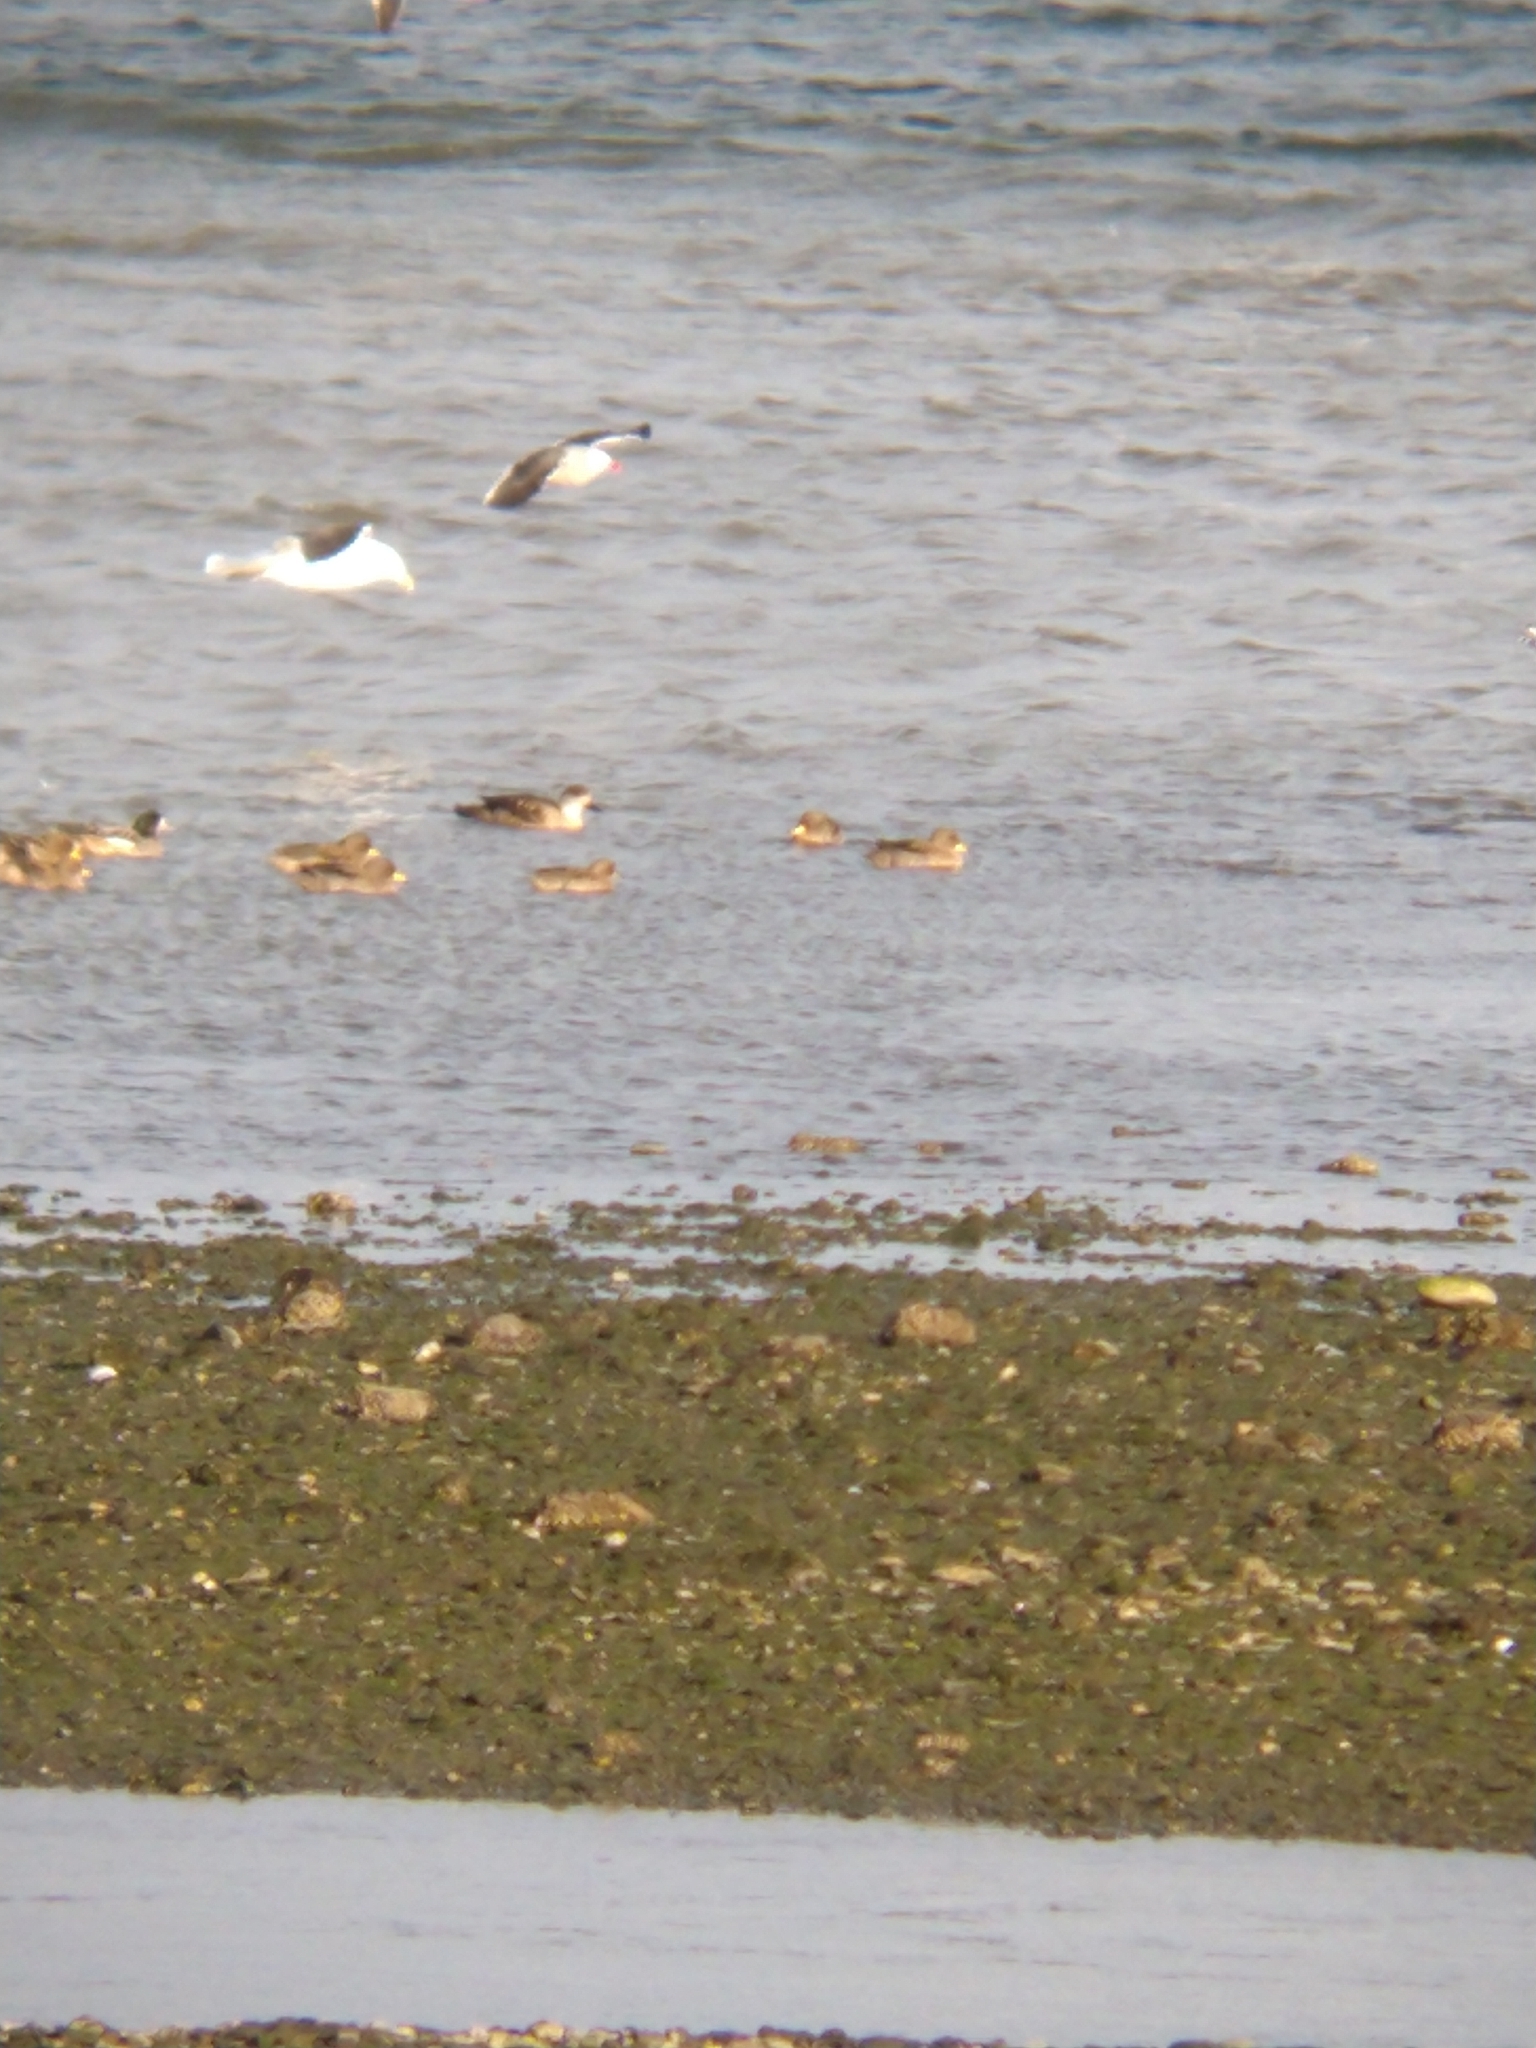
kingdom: Animalia
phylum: Chordata
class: Aves
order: Anseriformes
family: Anatidae
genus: Lophonetta
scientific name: Lophonetta specularioides
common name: Crested duck
